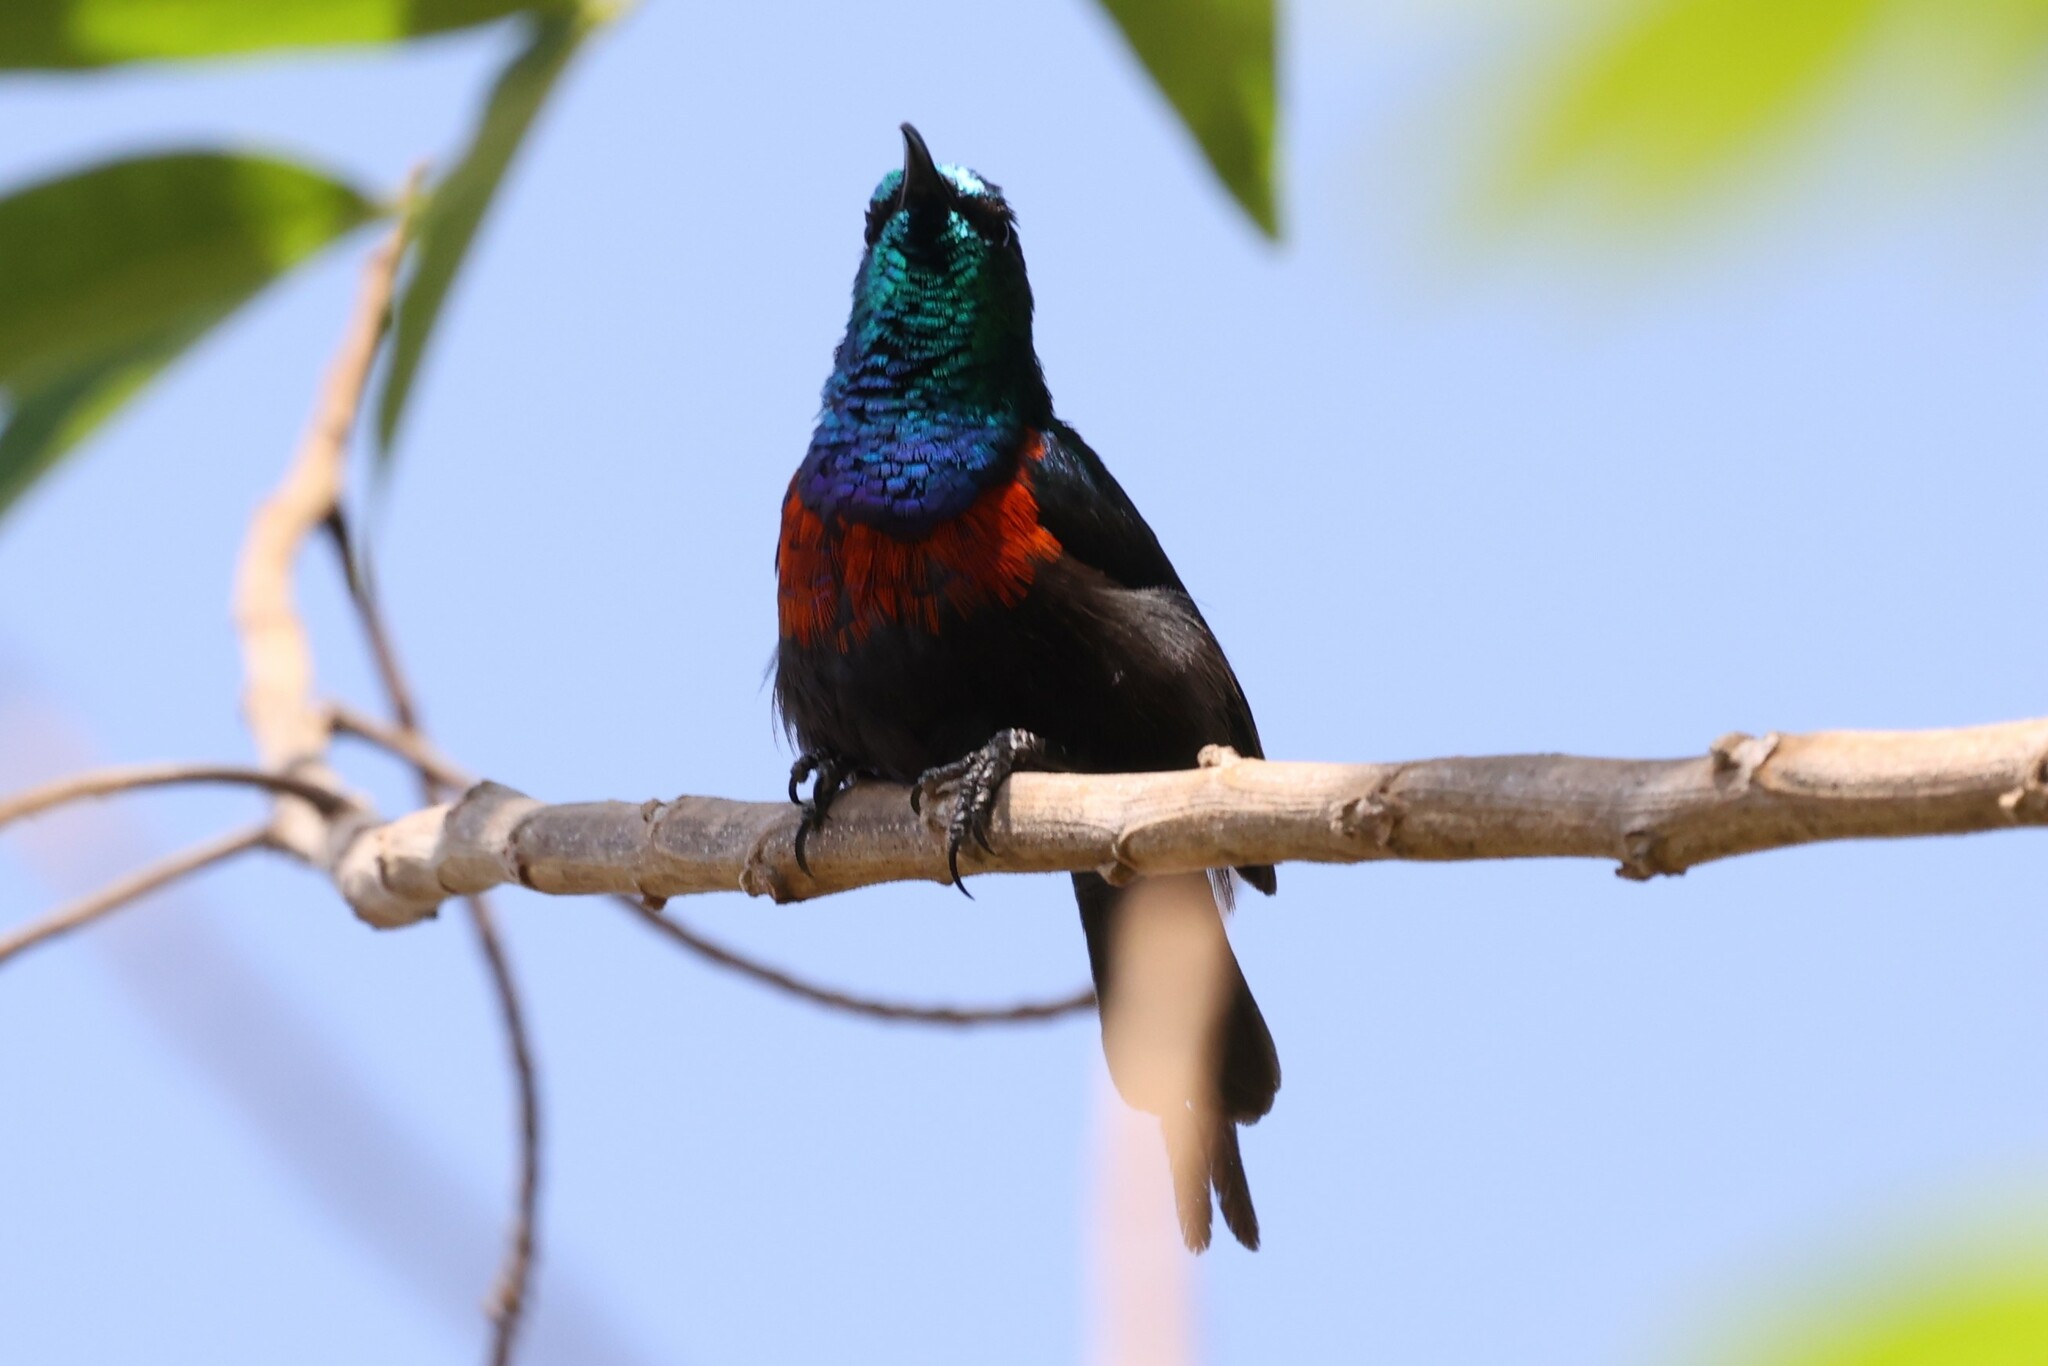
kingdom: Animalia
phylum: Chordata
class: Aves
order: Passeriformes
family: Nectariniidae
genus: Cinnyris
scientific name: Cinnyris erythrocercus
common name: Red-chested sunbird
